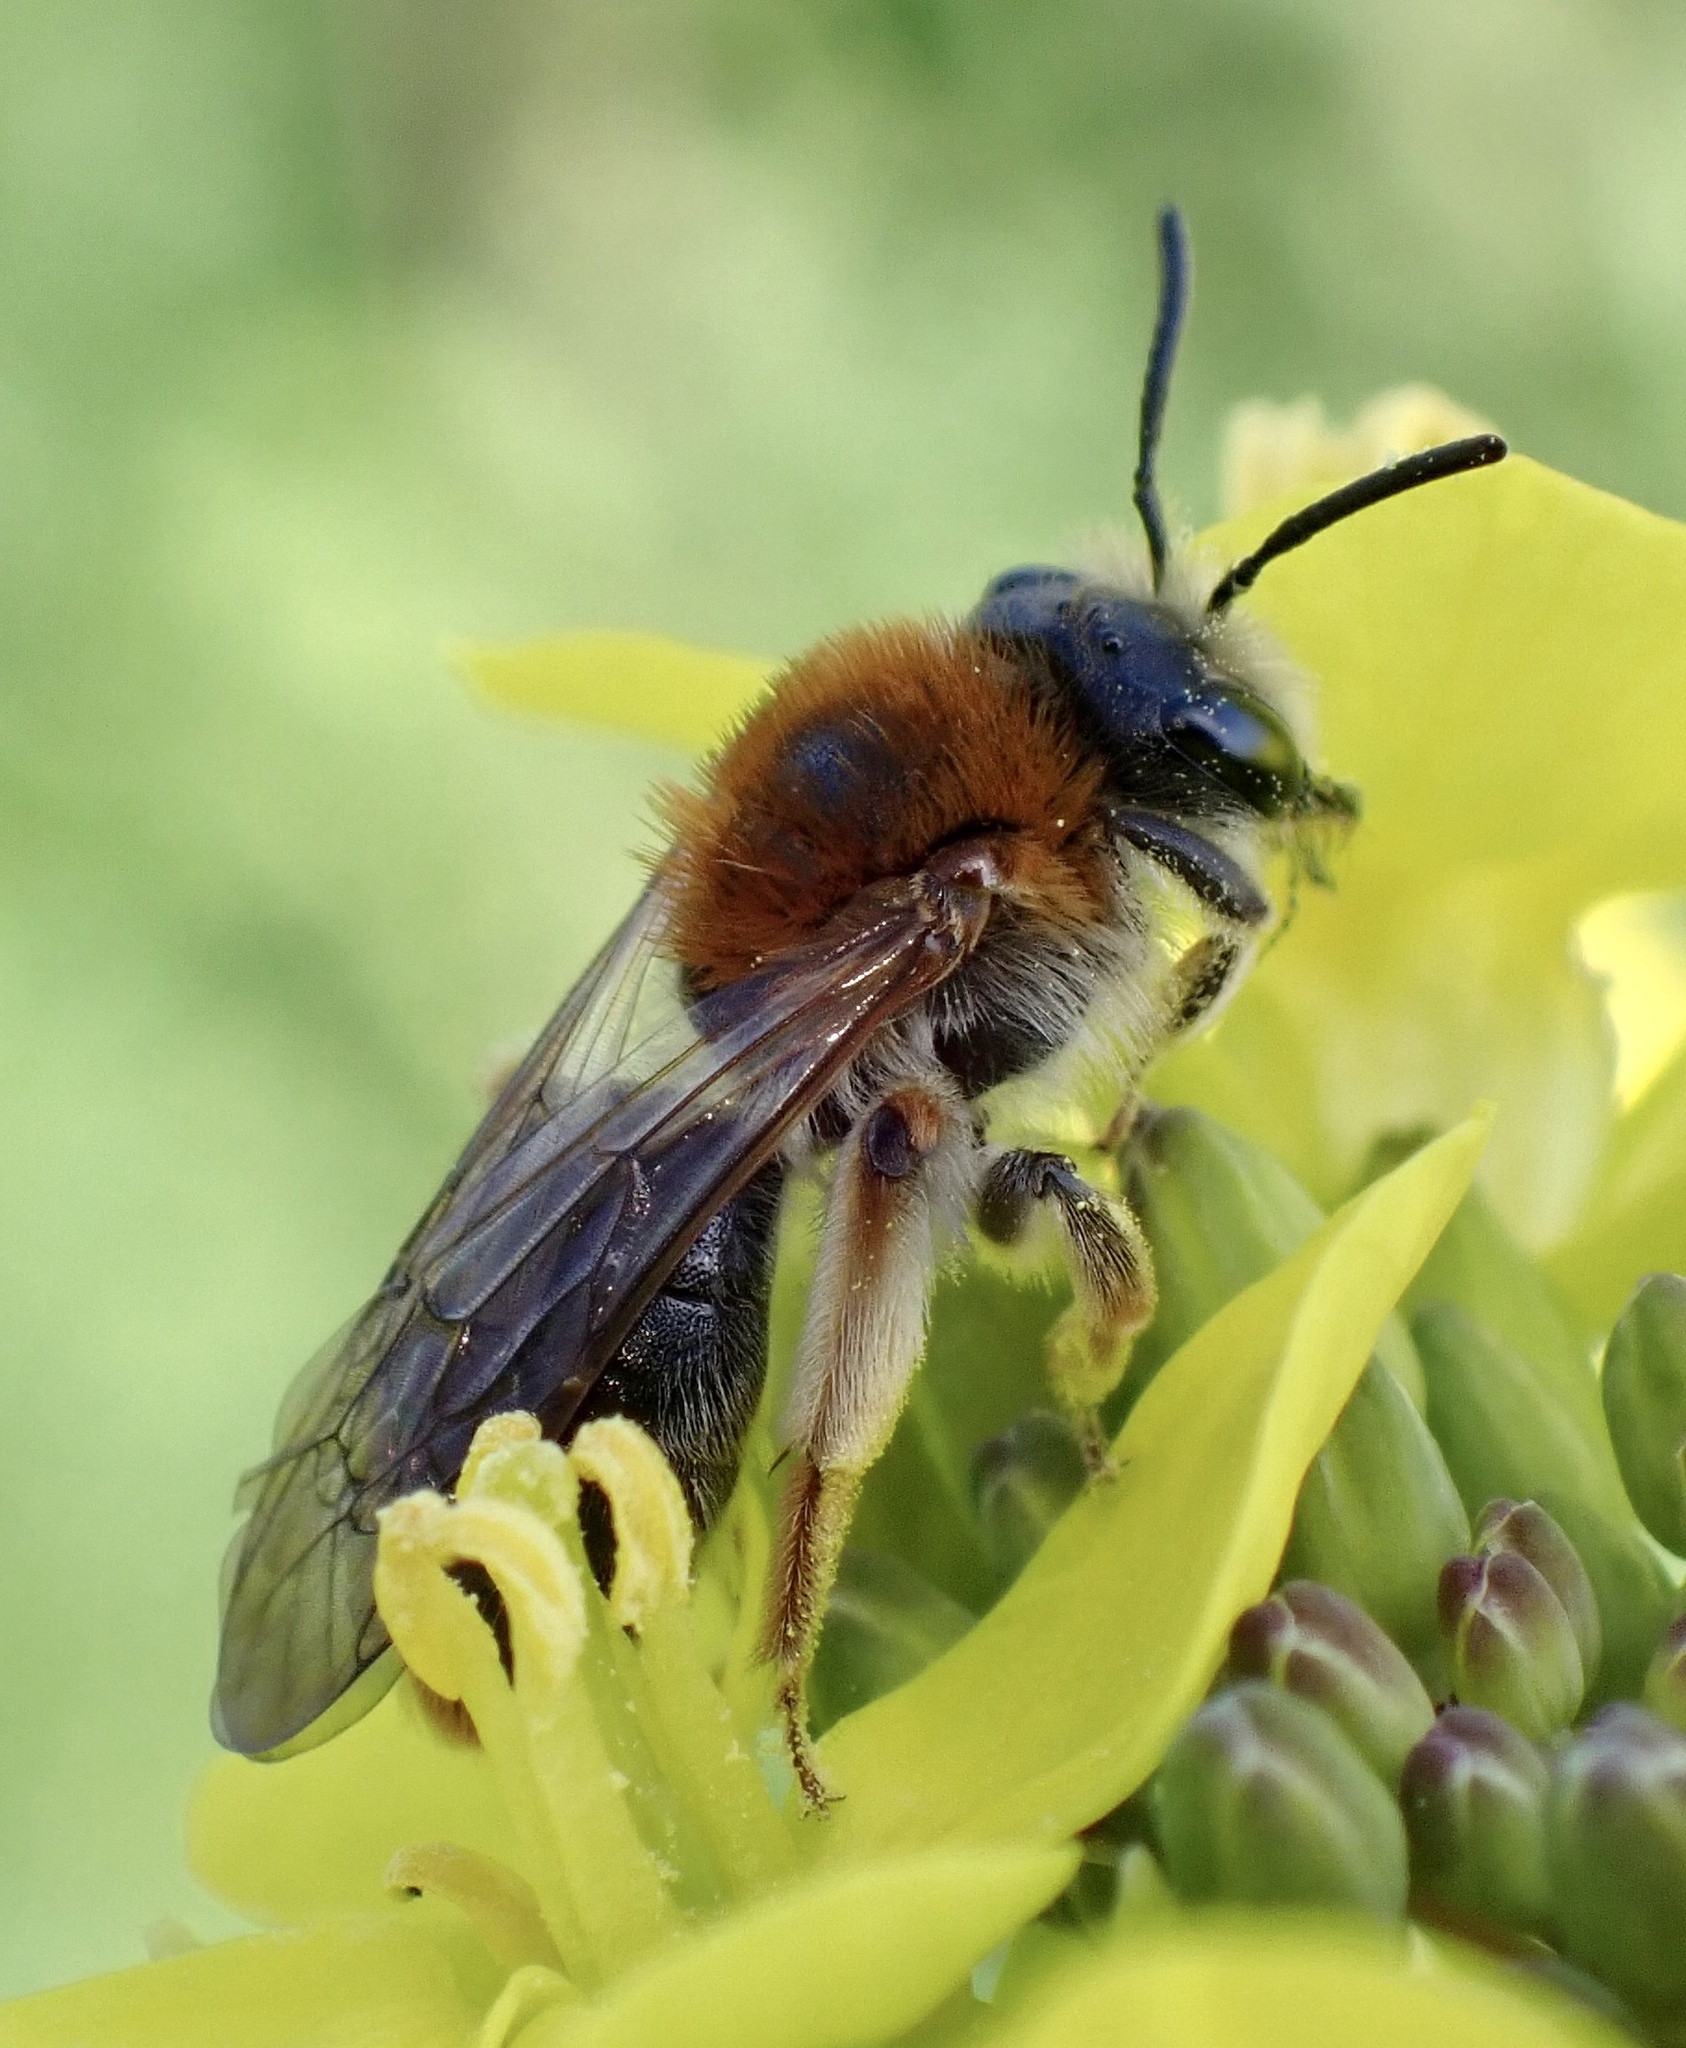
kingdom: Animalia
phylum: Arthropoda
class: Insecta
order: Hymenoptera
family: Andrenidae
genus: Andrena
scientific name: Andrena haemorrhoa
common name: Early mining bee
